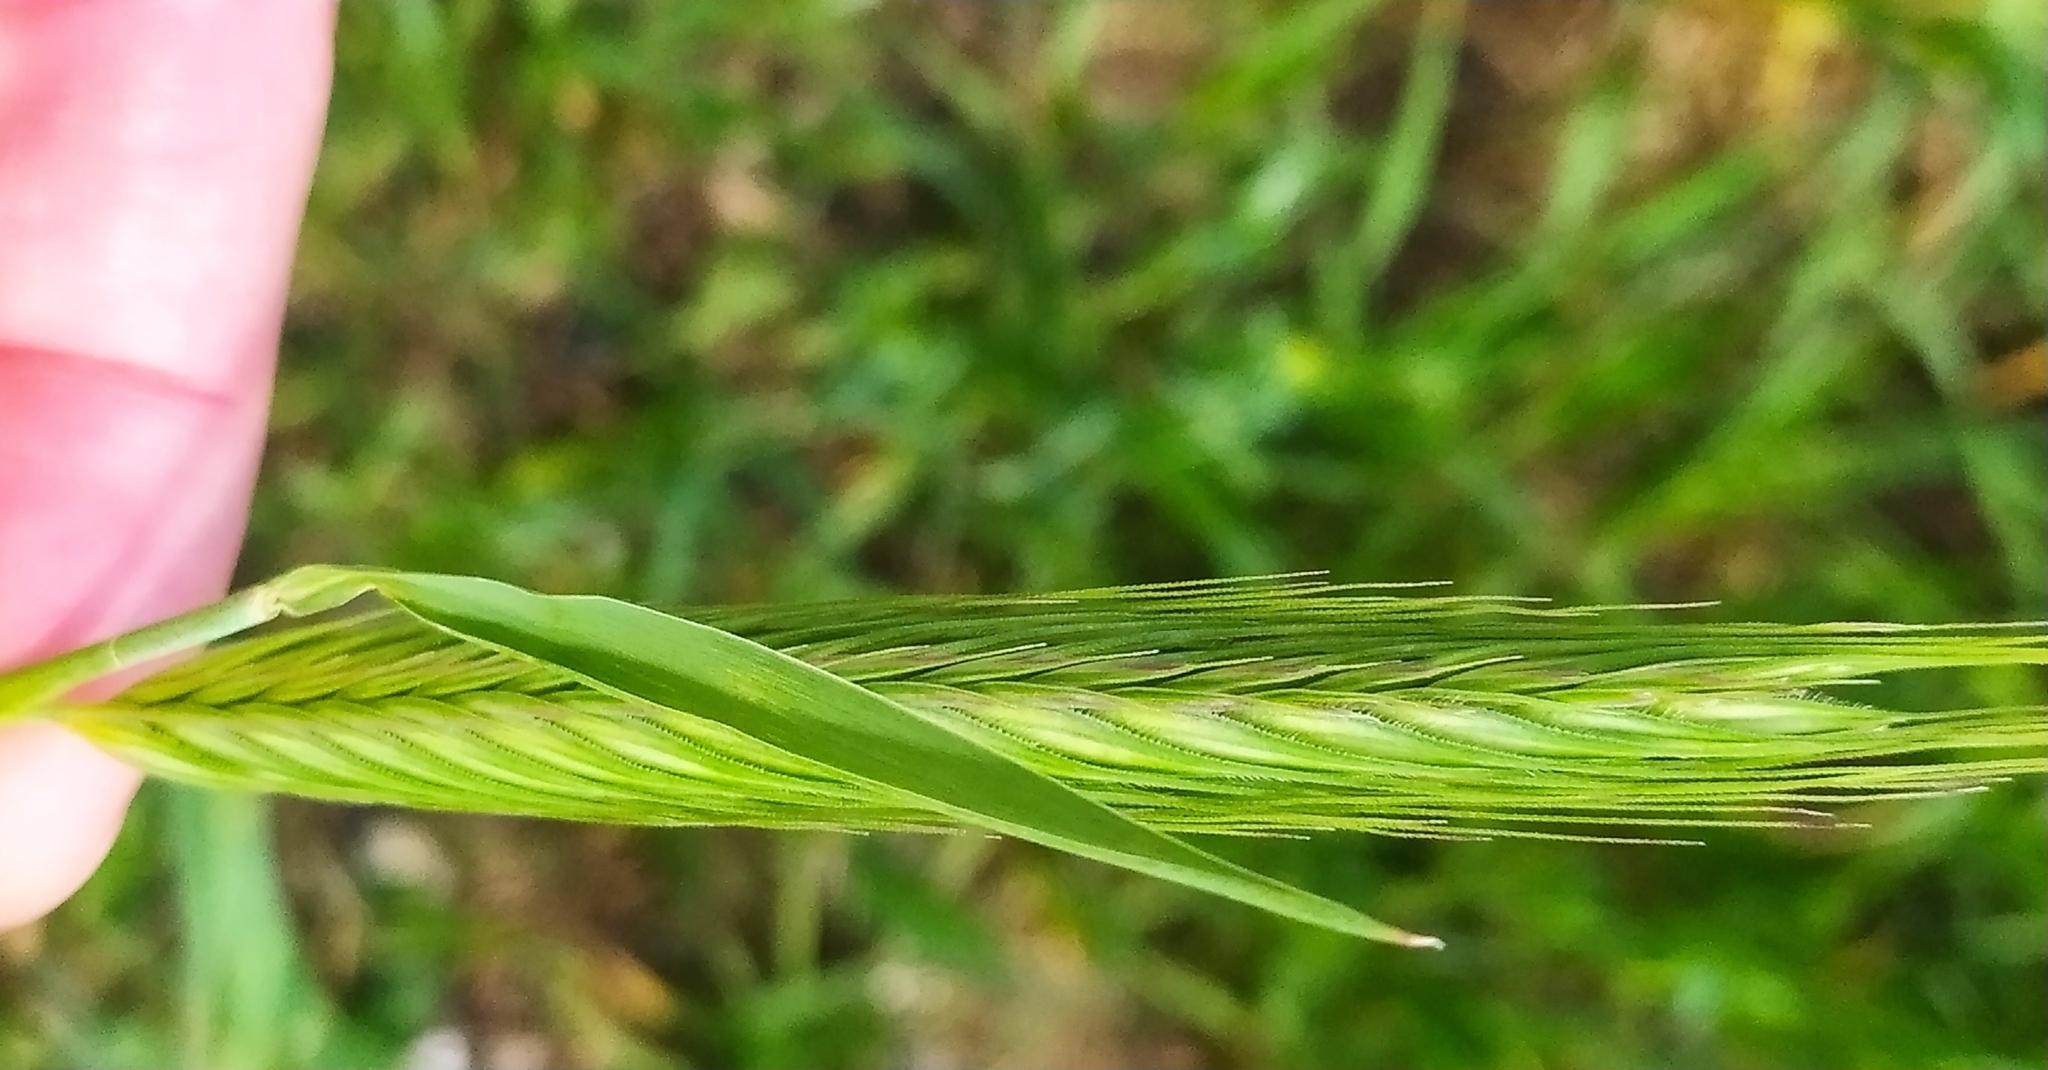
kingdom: Plantae
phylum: Tracheophyta
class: Liliopsida
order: Poales
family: Poaceae
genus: Secale
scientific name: Secale cereale
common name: Rye
